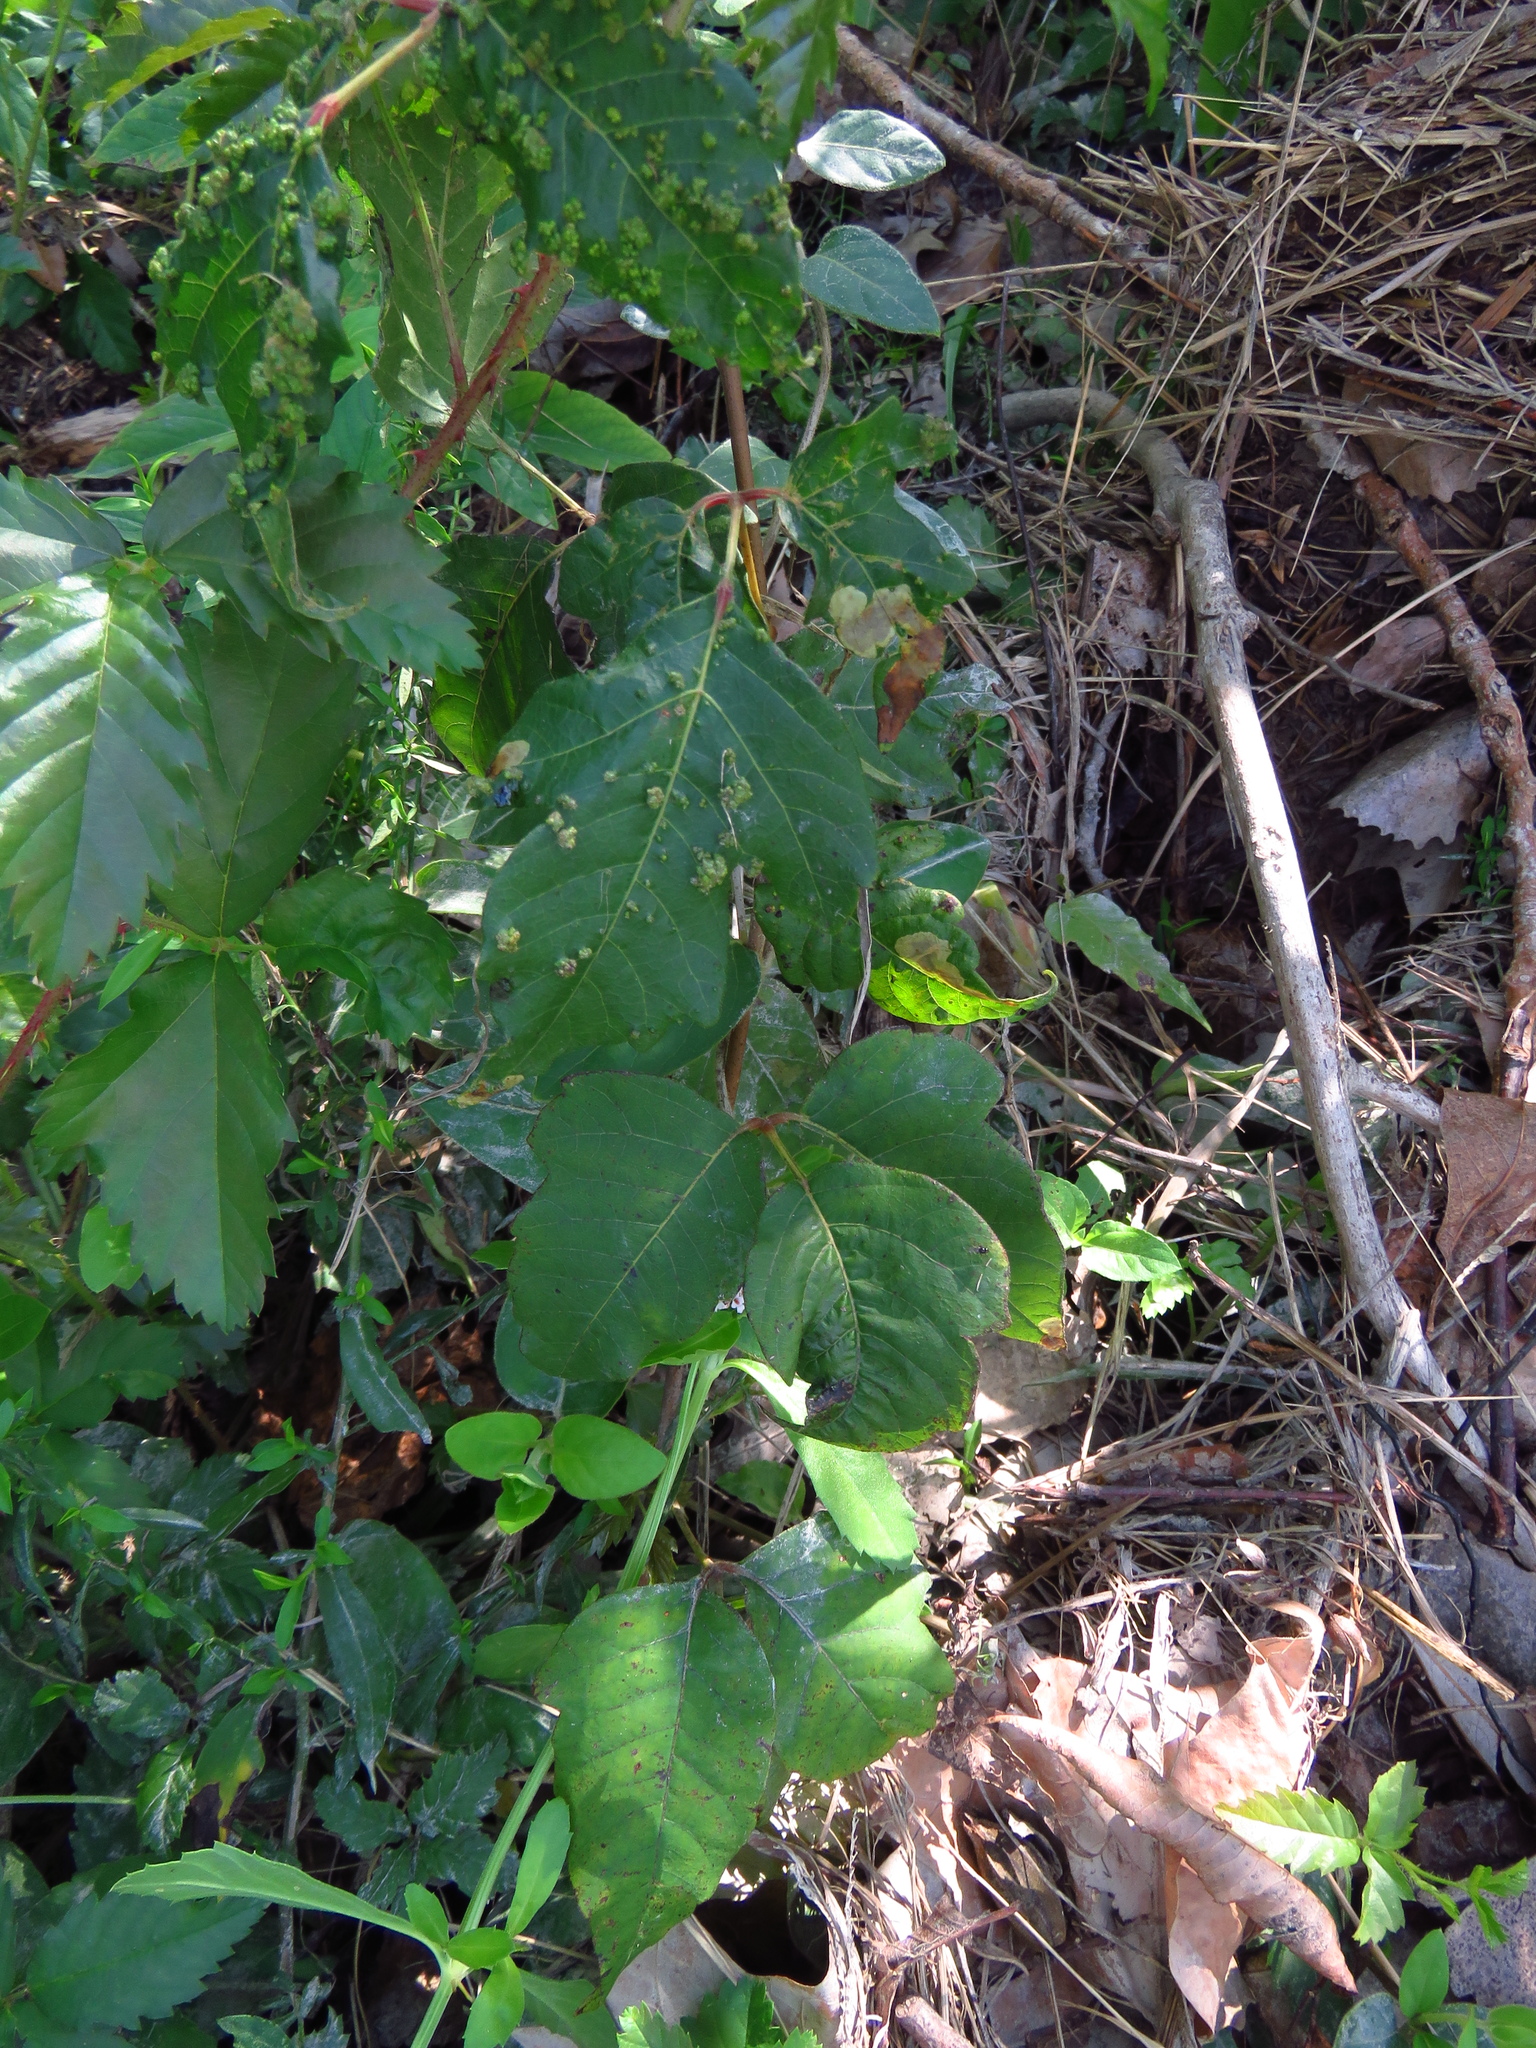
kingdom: Plantae
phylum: Tracheophyta
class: Magnoliopsida
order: Sapindales
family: Anacardiaceae
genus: Toxicodendron
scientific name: Toxicodendron radicans
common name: Poison ivy
